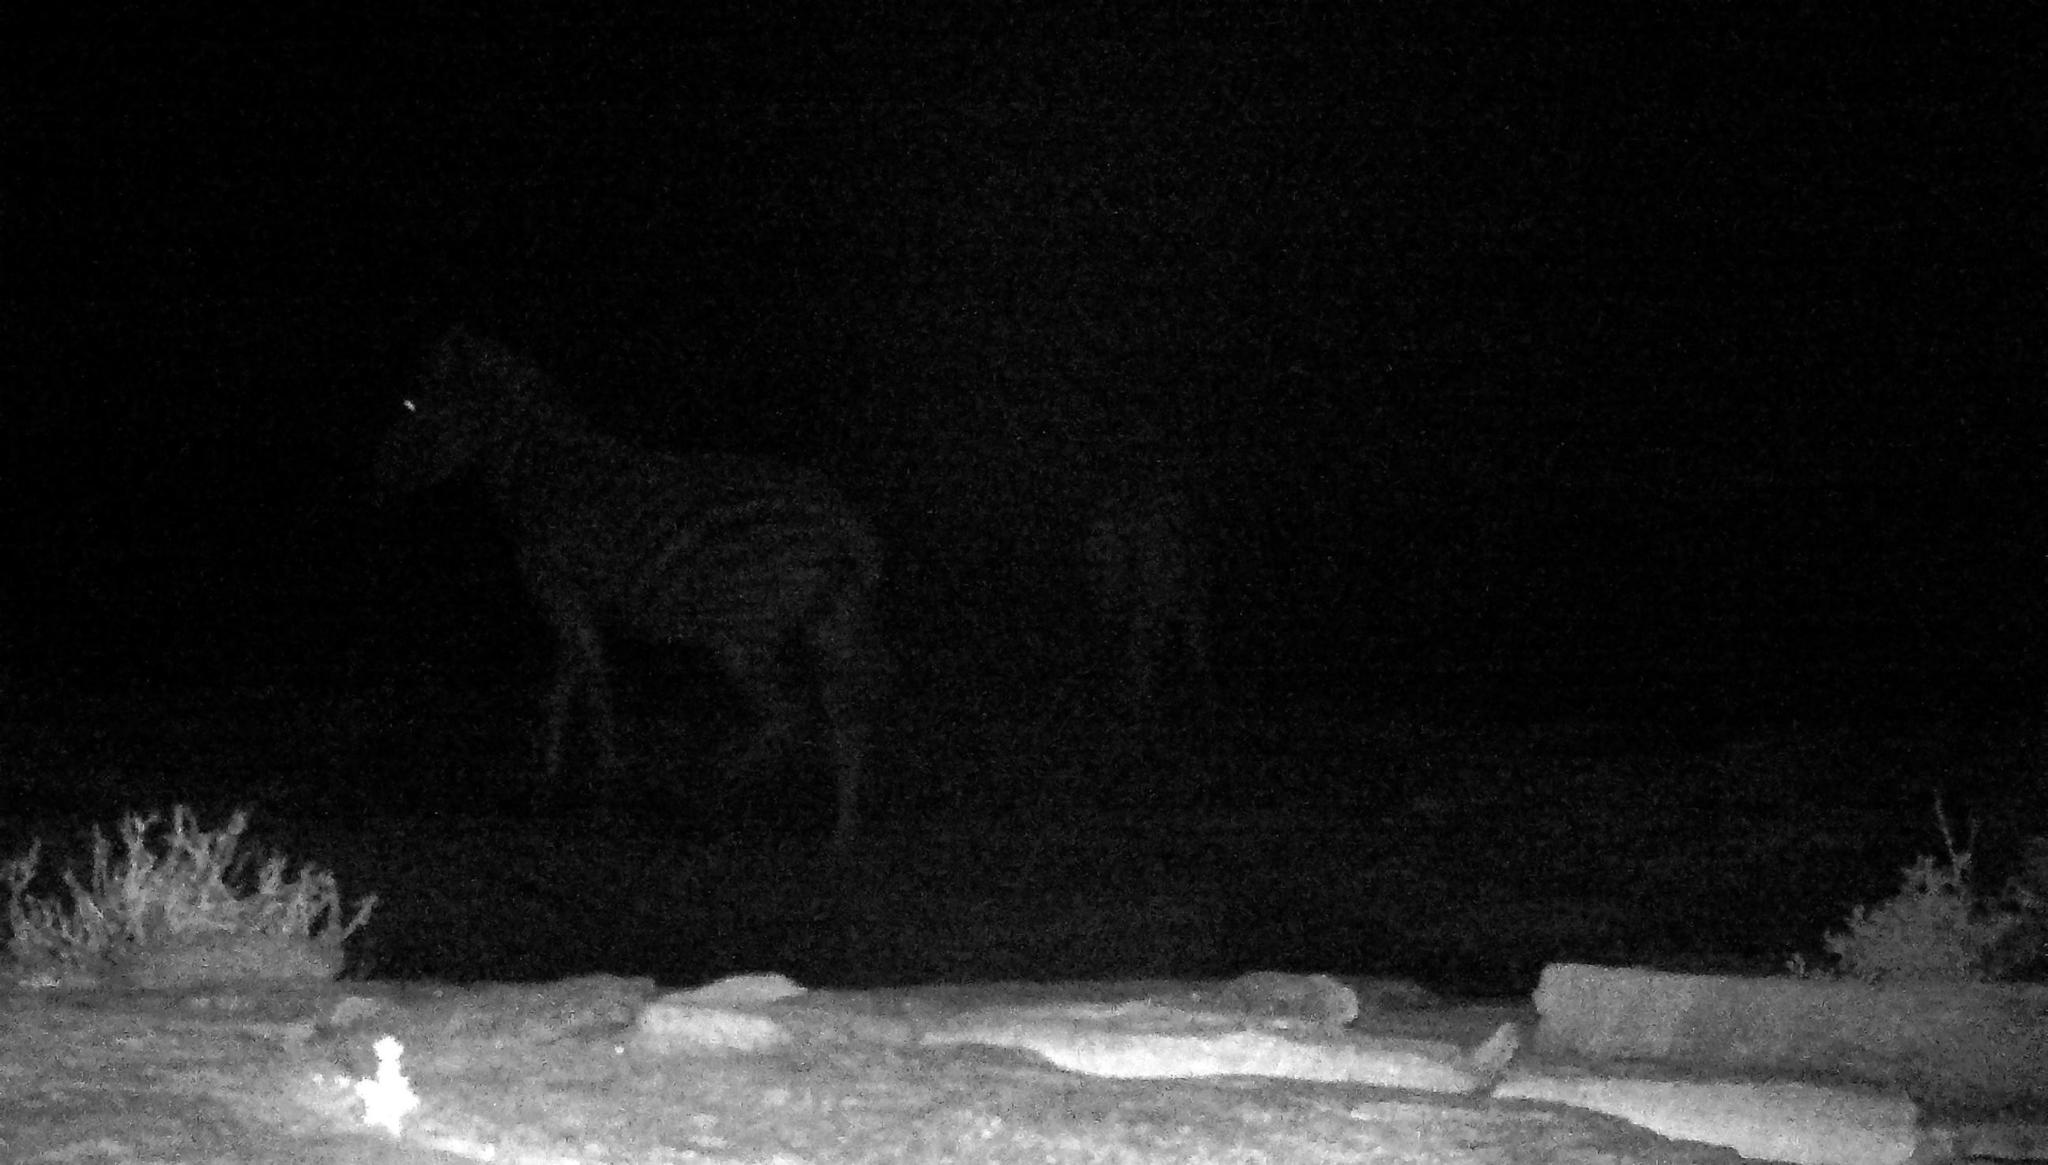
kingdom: Animalia
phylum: Chordata
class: Mammalia
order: Perissodactyla
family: Equidae
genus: Equus
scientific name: Equus quagga
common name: Plains zebra
